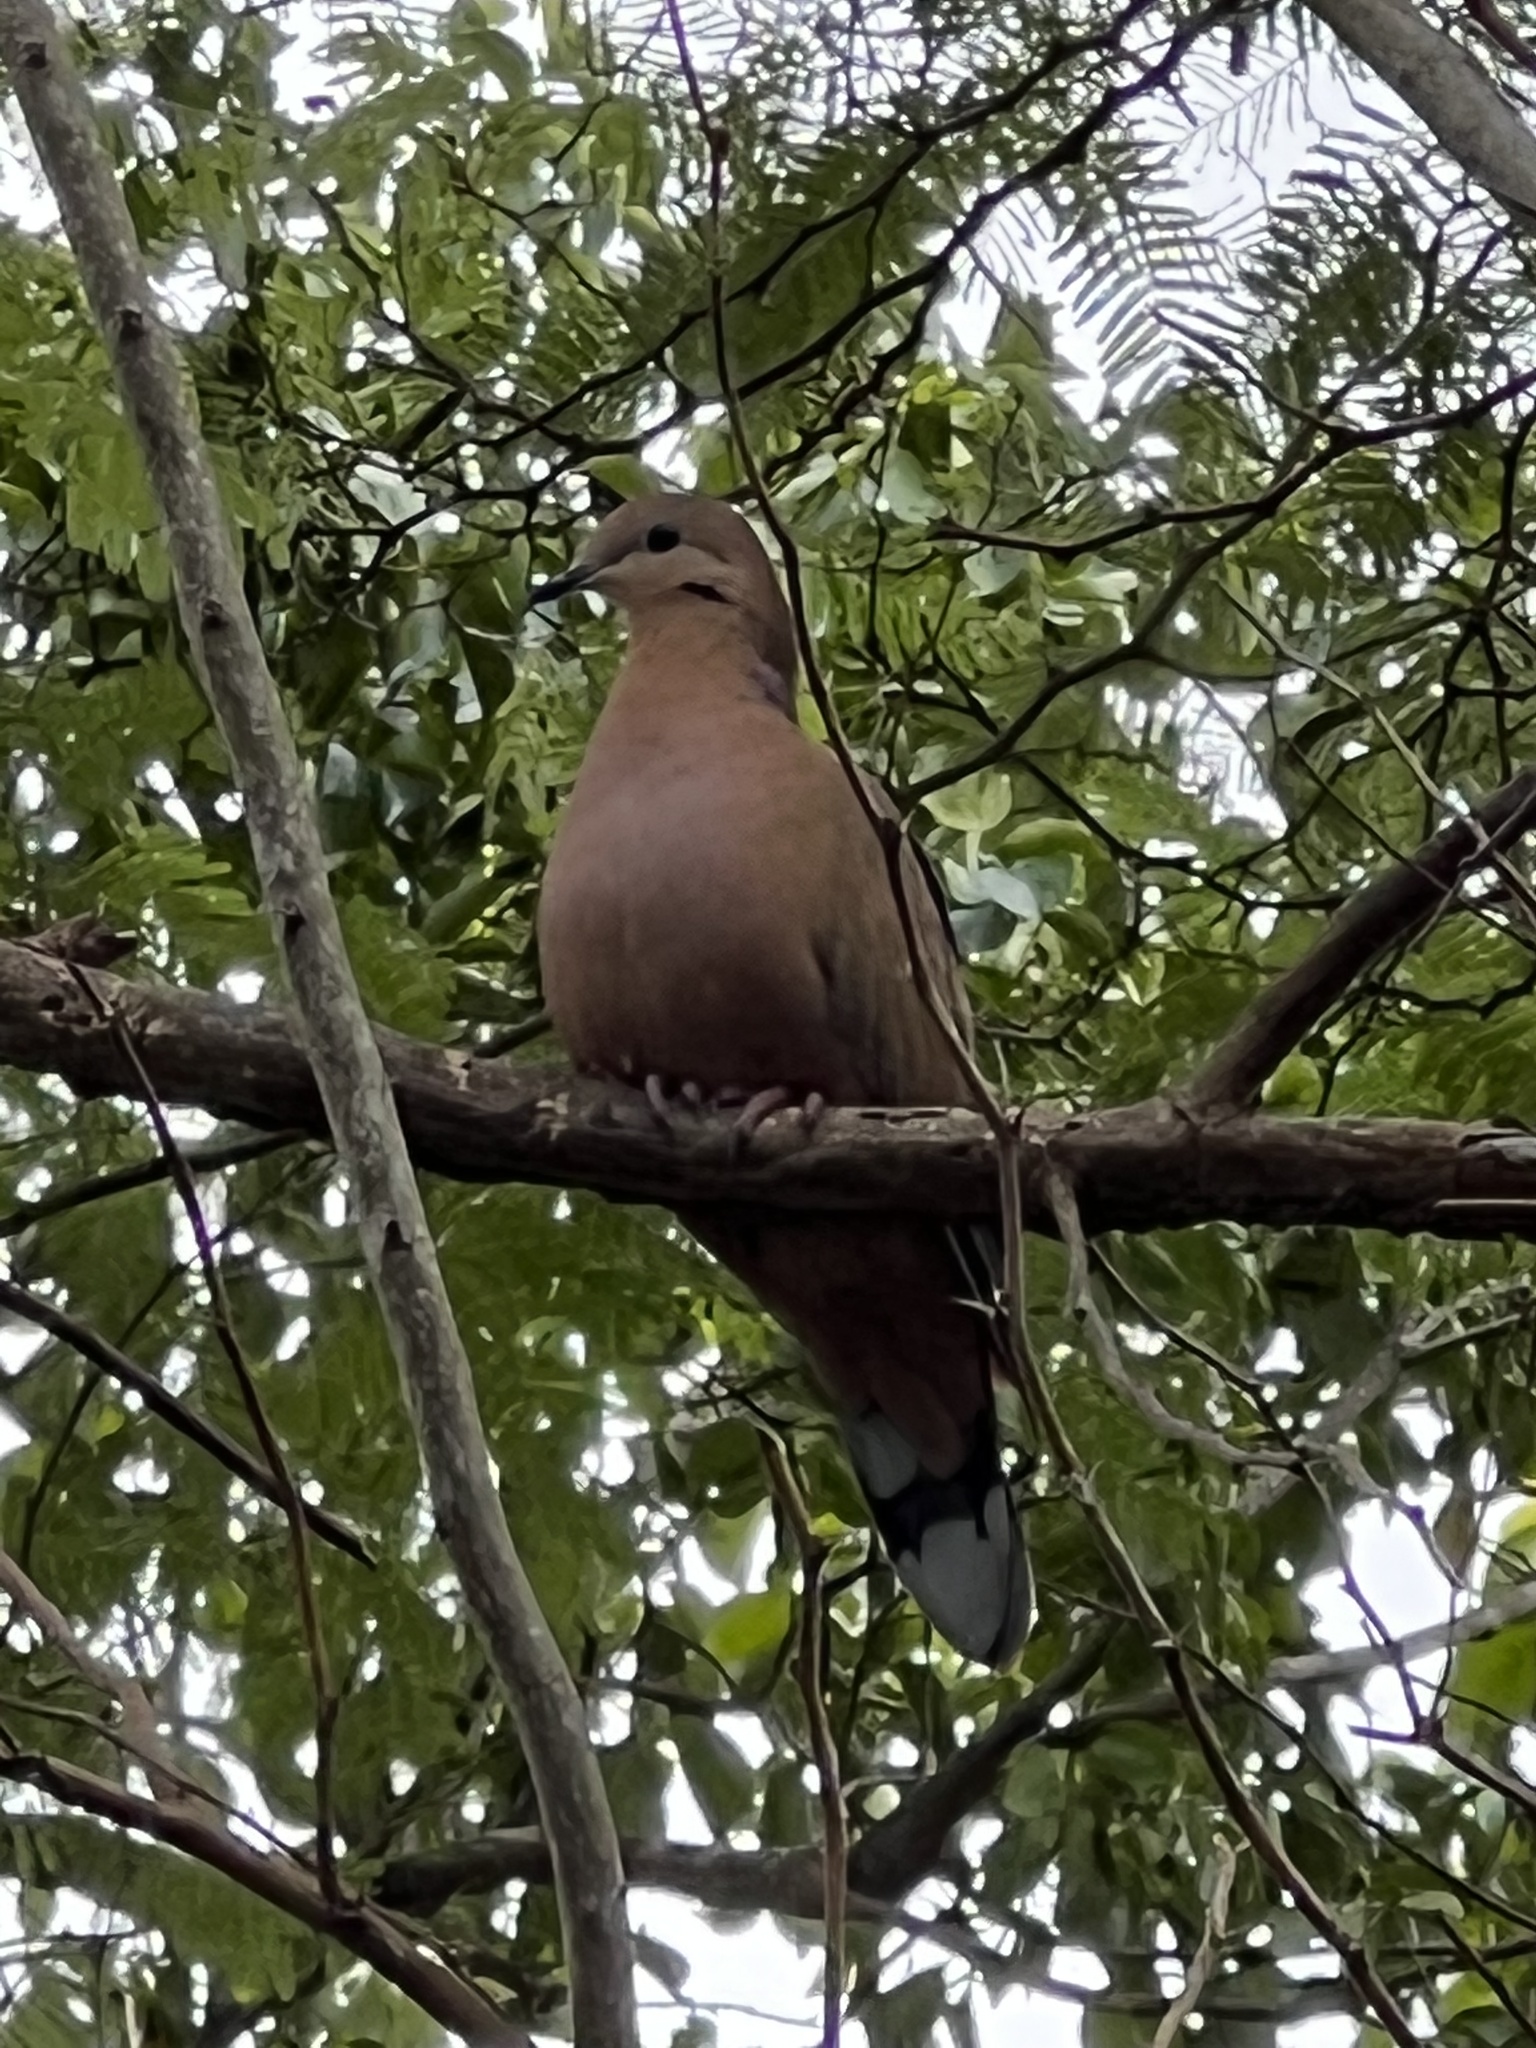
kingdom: Animalia
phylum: Chordata
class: Aves
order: Columbiformes
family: Columbidae
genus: Zenaida
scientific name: Zenaida aurita
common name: Zenaida dove
